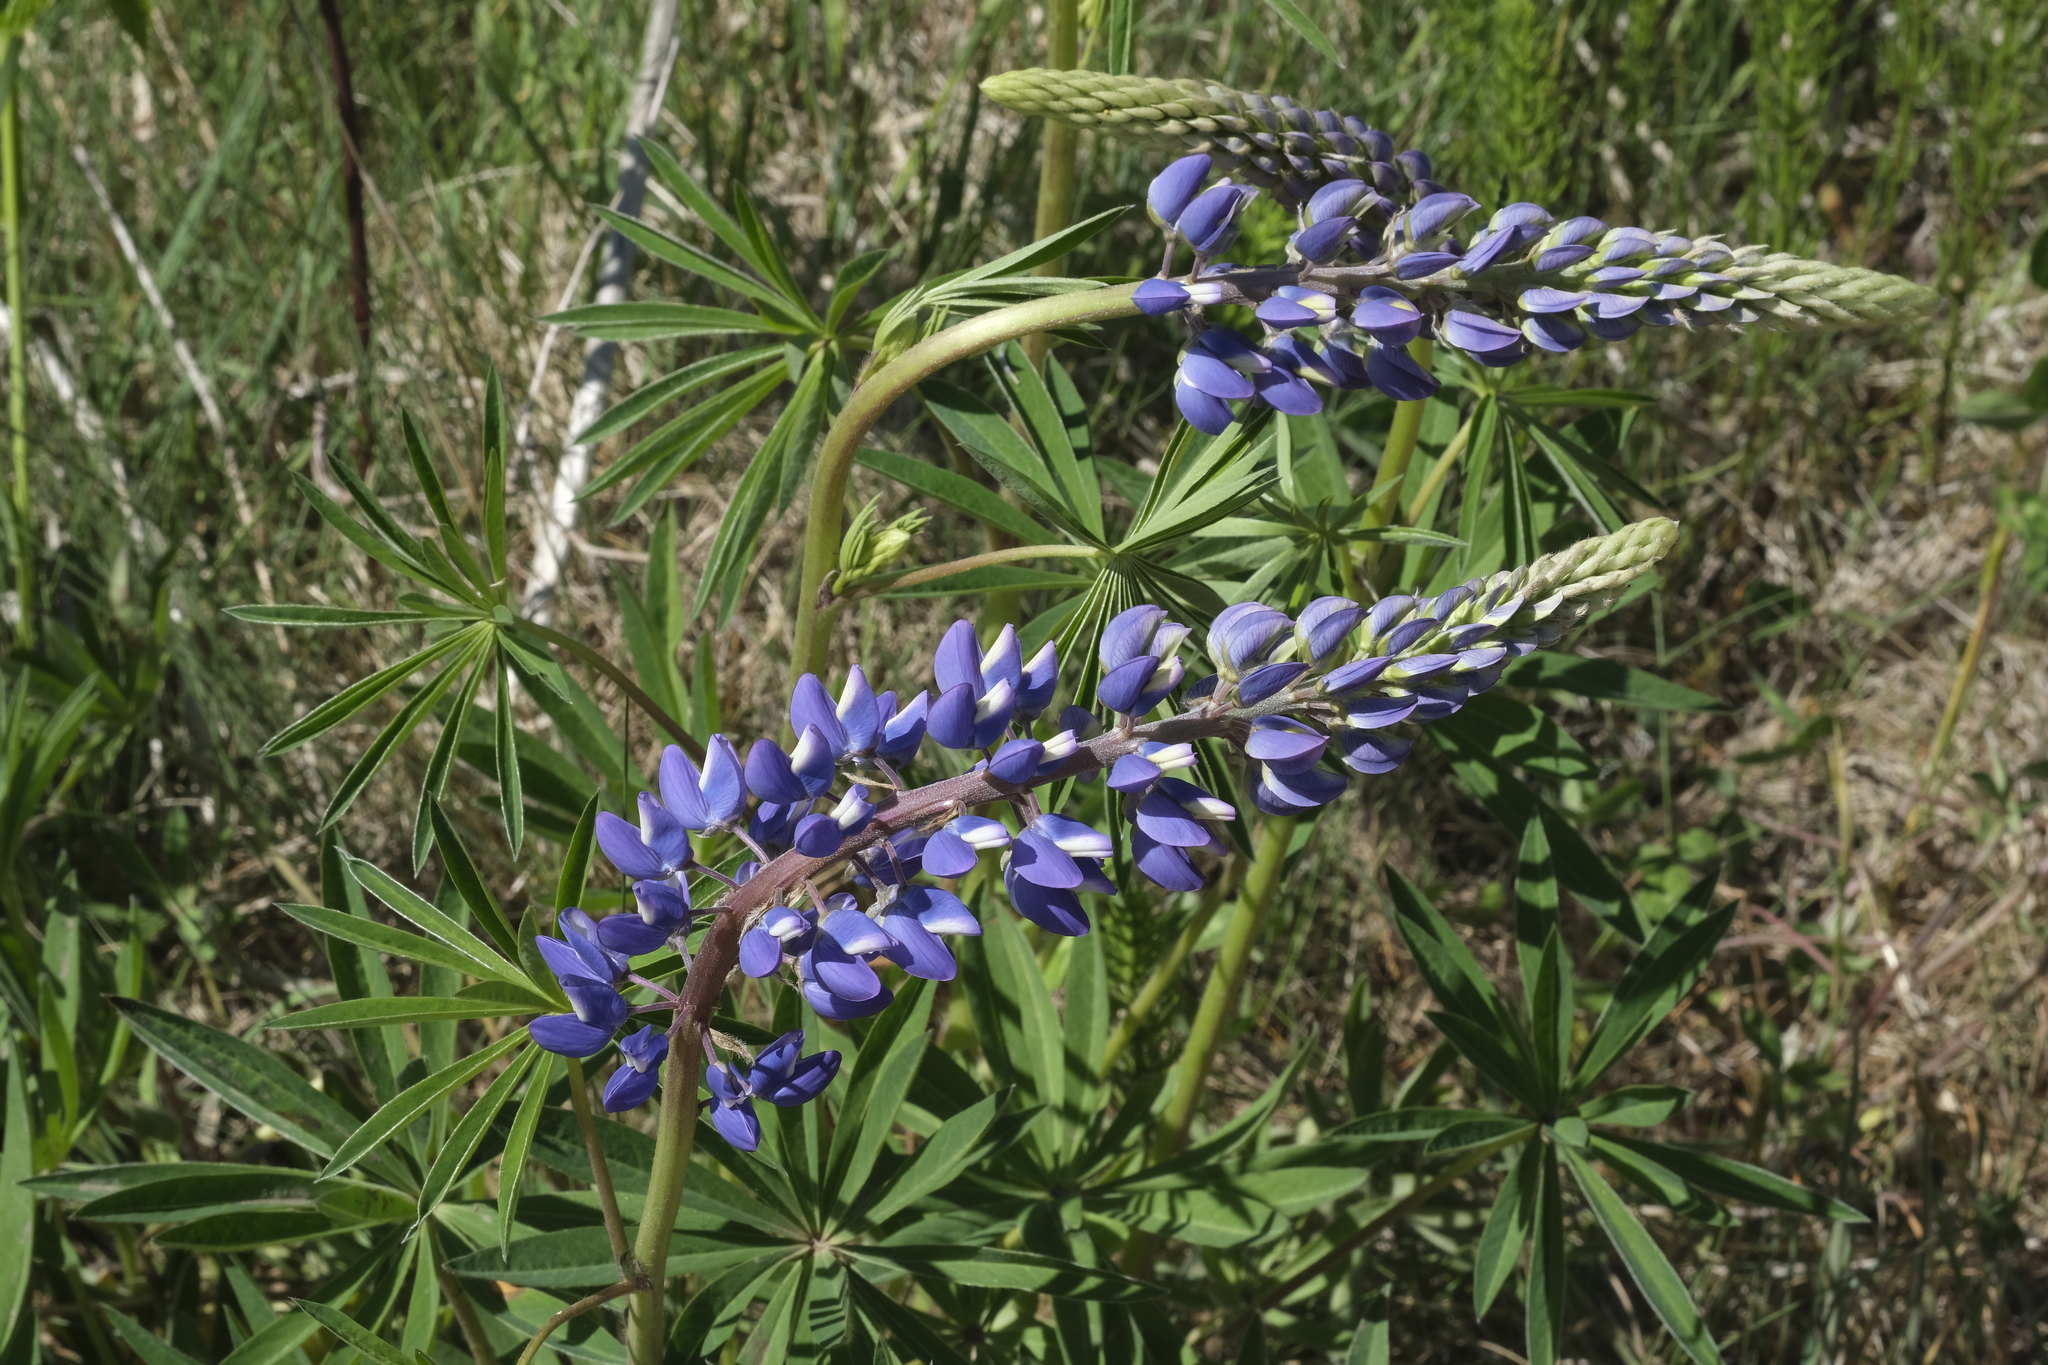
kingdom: Plantae
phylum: Tracheophyta
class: Magnoliopsida
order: Fabales
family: Fabaceae
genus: Lupinus
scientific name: Lupinus polyphyllus
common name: Garden lupin
